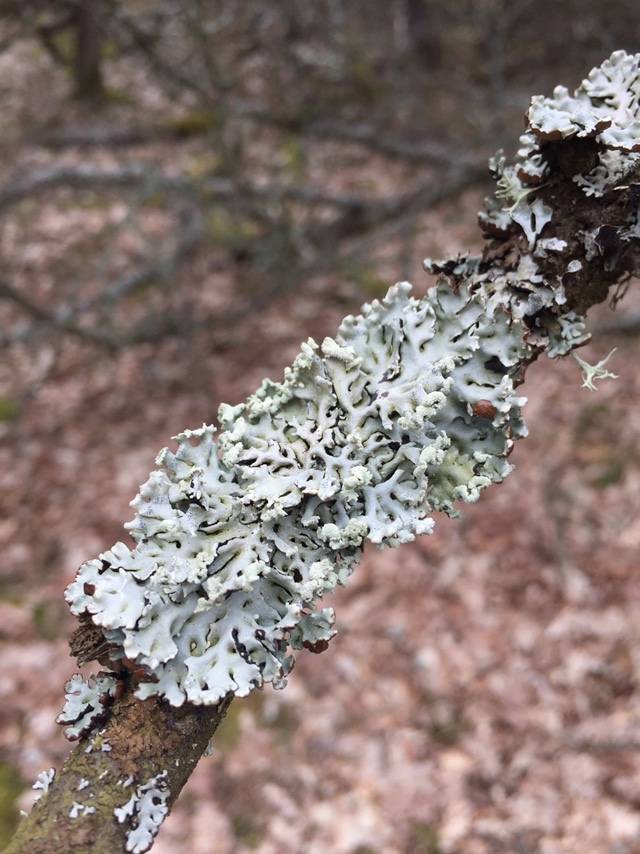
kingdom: Fungi
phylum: Ascomycota
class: Lecanoromycetes
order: Lecanorales
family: Parmeliaceae
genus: Hypogymnia
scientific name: Hypogymnia physodes
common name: Dark crottle
